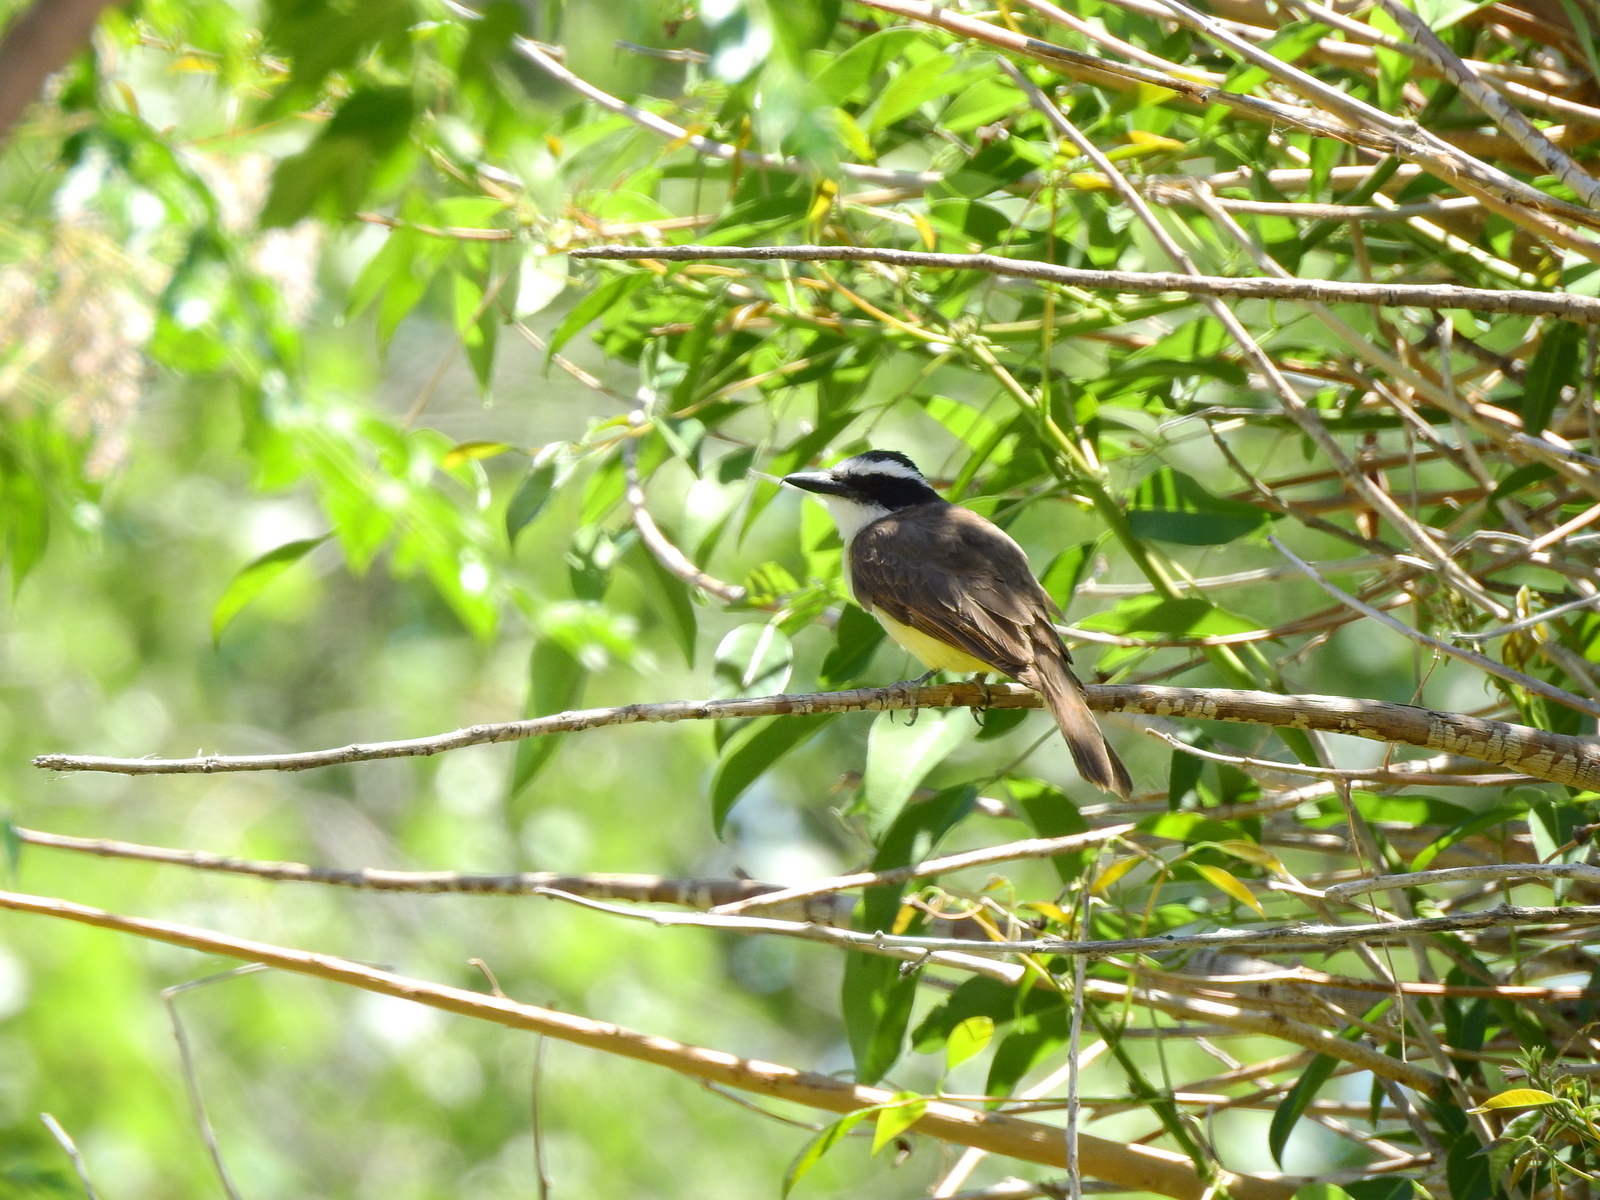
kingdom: Animalia
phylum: Chordata
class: Aves
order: Passeriformes
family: Tyrannidae
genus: Pitangus
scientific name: Pitangus sulphuratus
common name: Great kiskadee
